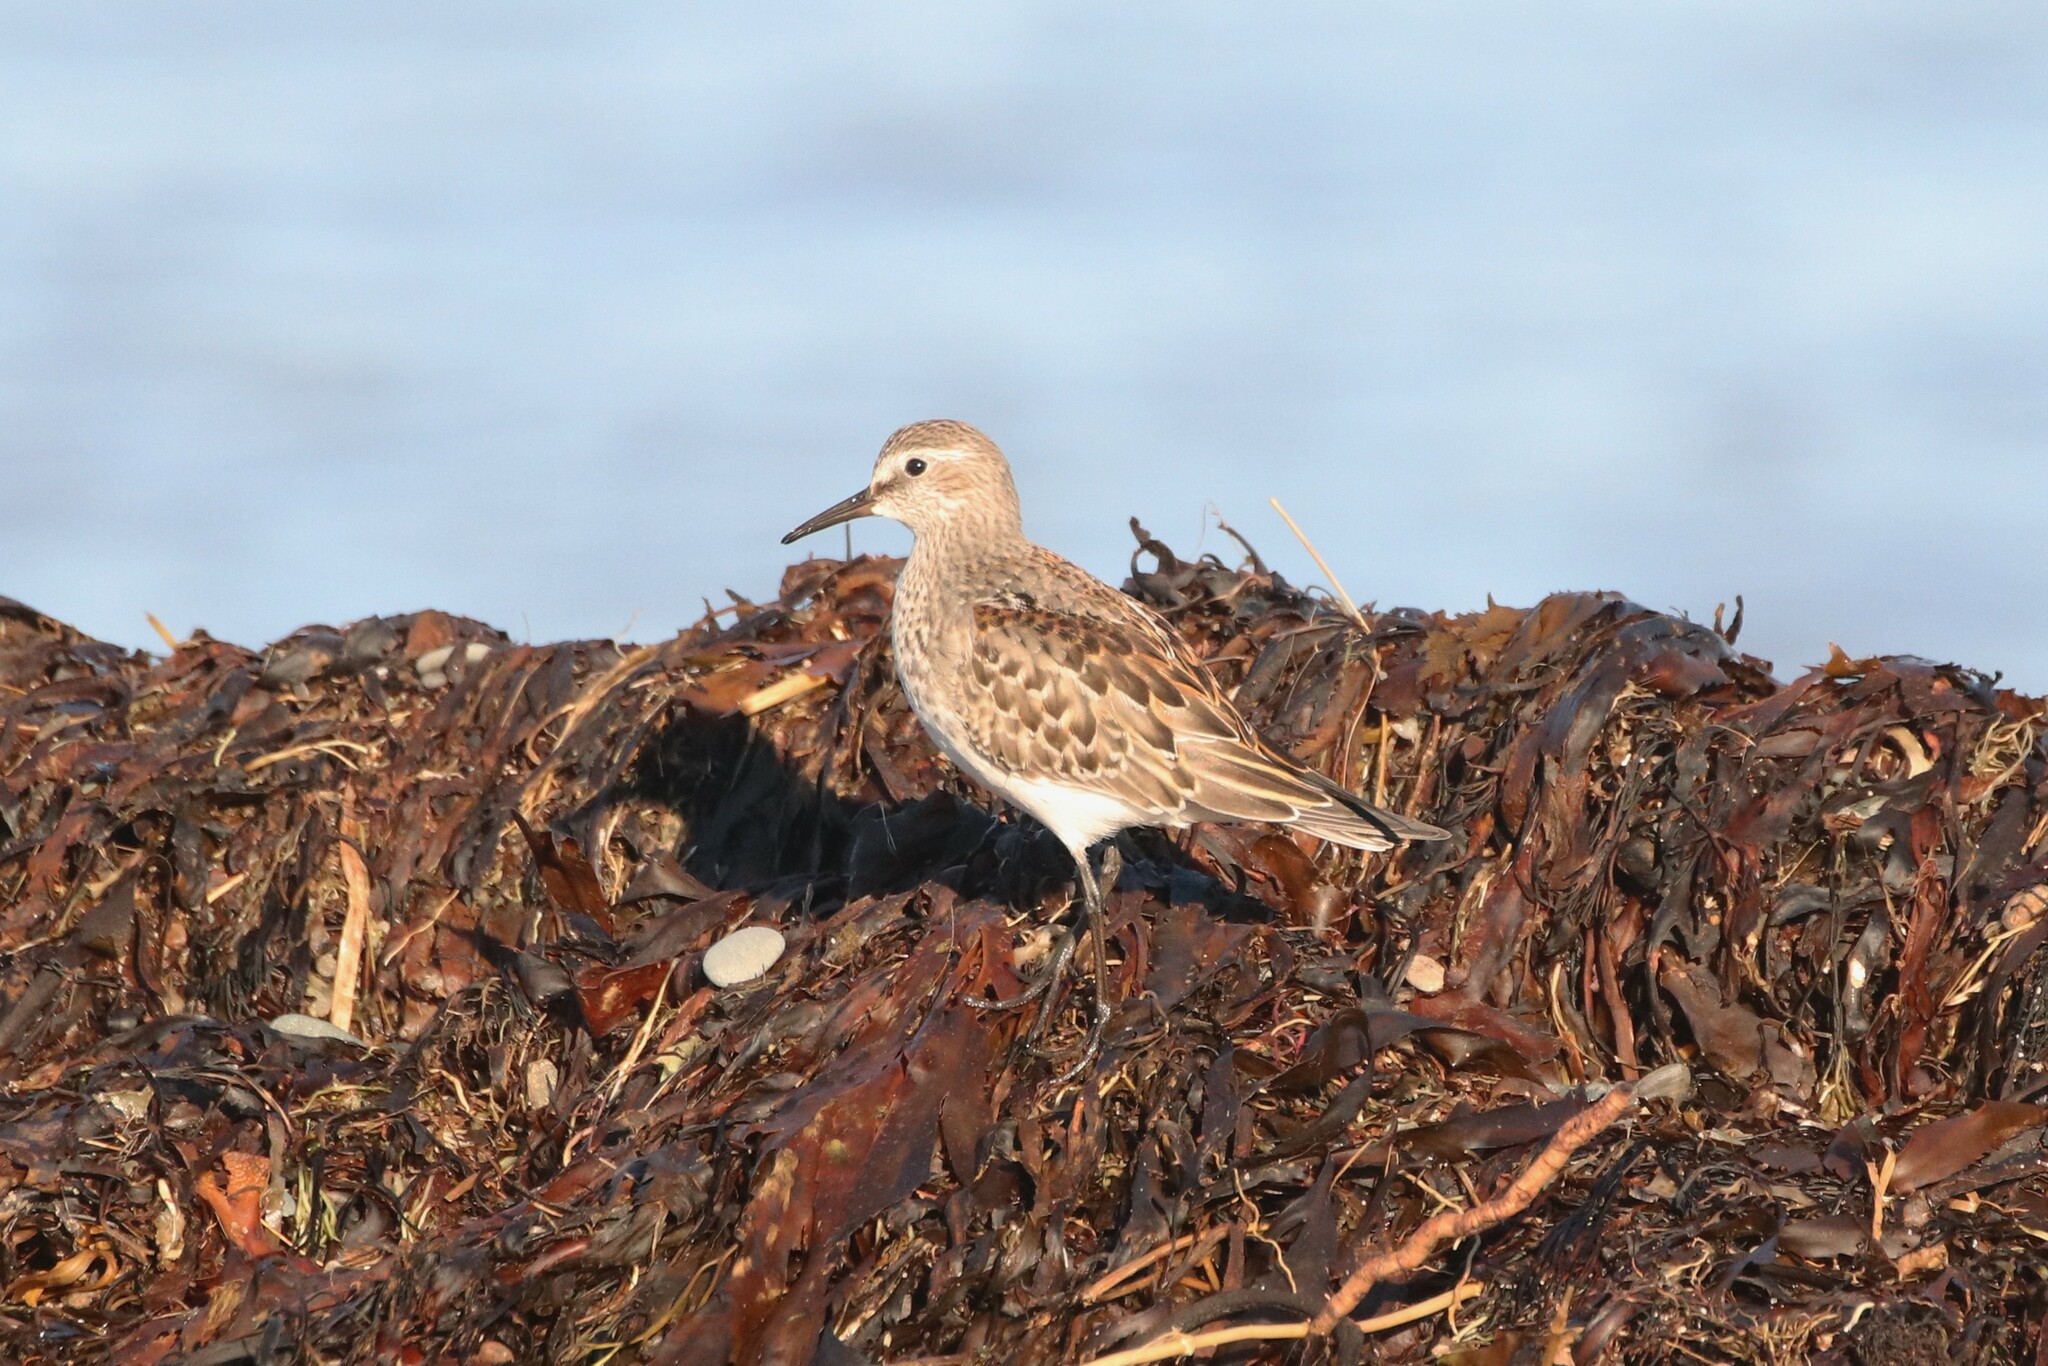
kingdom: Animalia
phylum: Chordata
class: Aves
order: Charadriiformes
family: Scolopacidae
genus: Calidris
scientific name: Calidris fuscicollis
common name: White-rumped sandpiper
